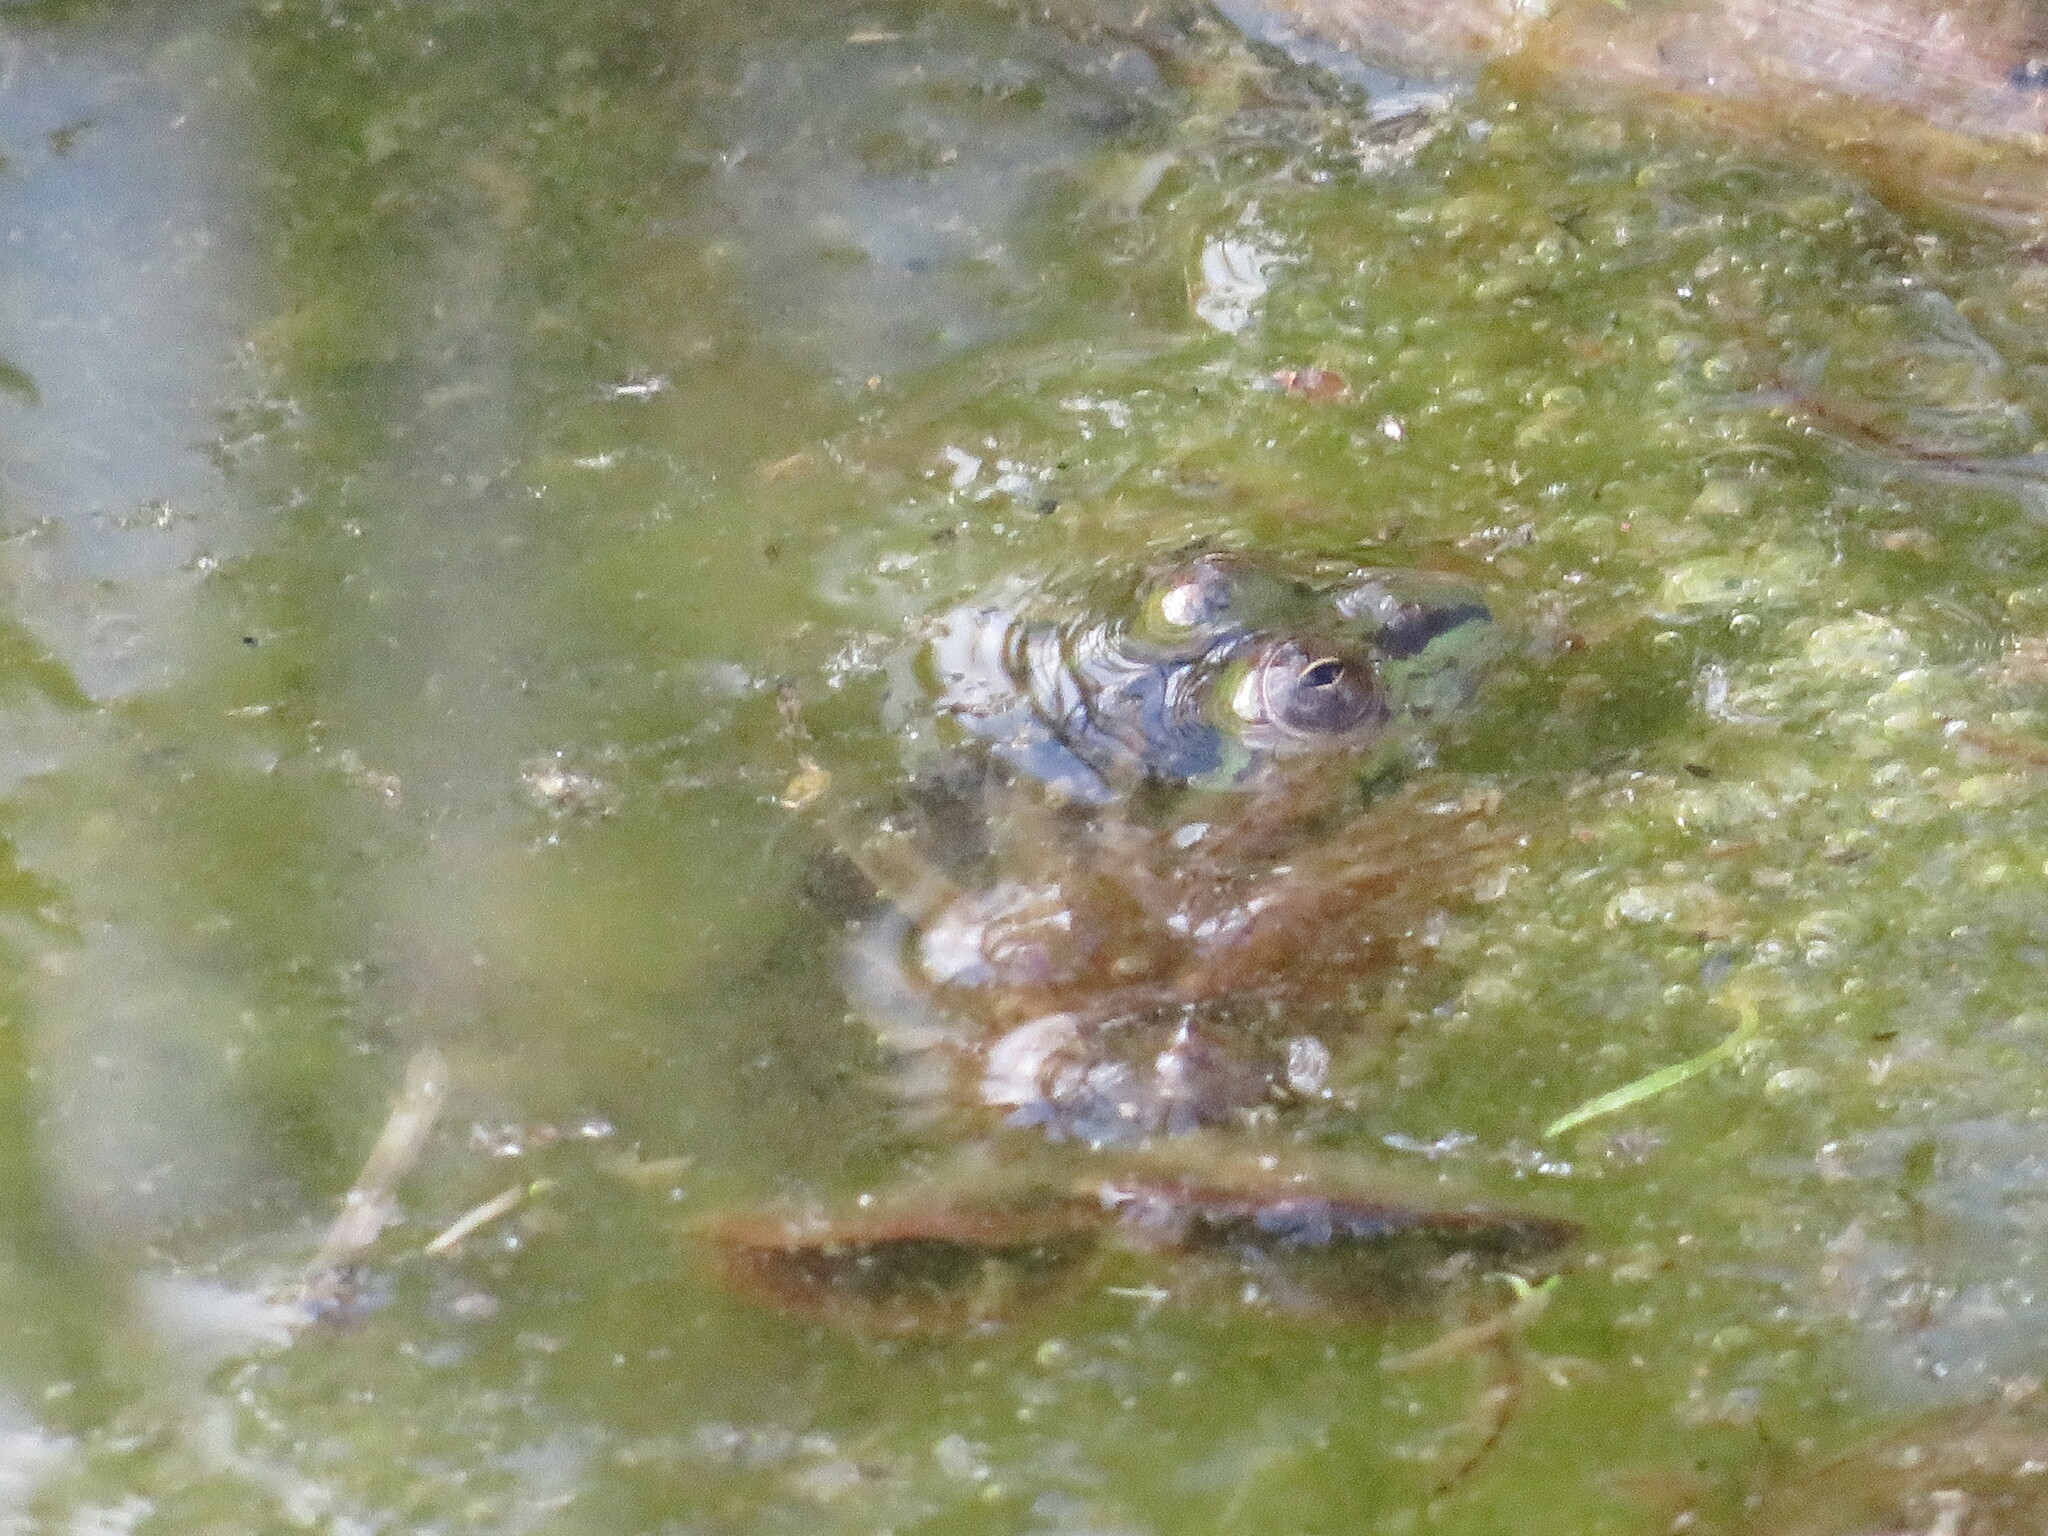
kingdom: Animalia
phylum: Chordata
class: Amphibia
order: Anura
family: Hylidae
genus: Pseudis
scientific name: Pseudis minuta
